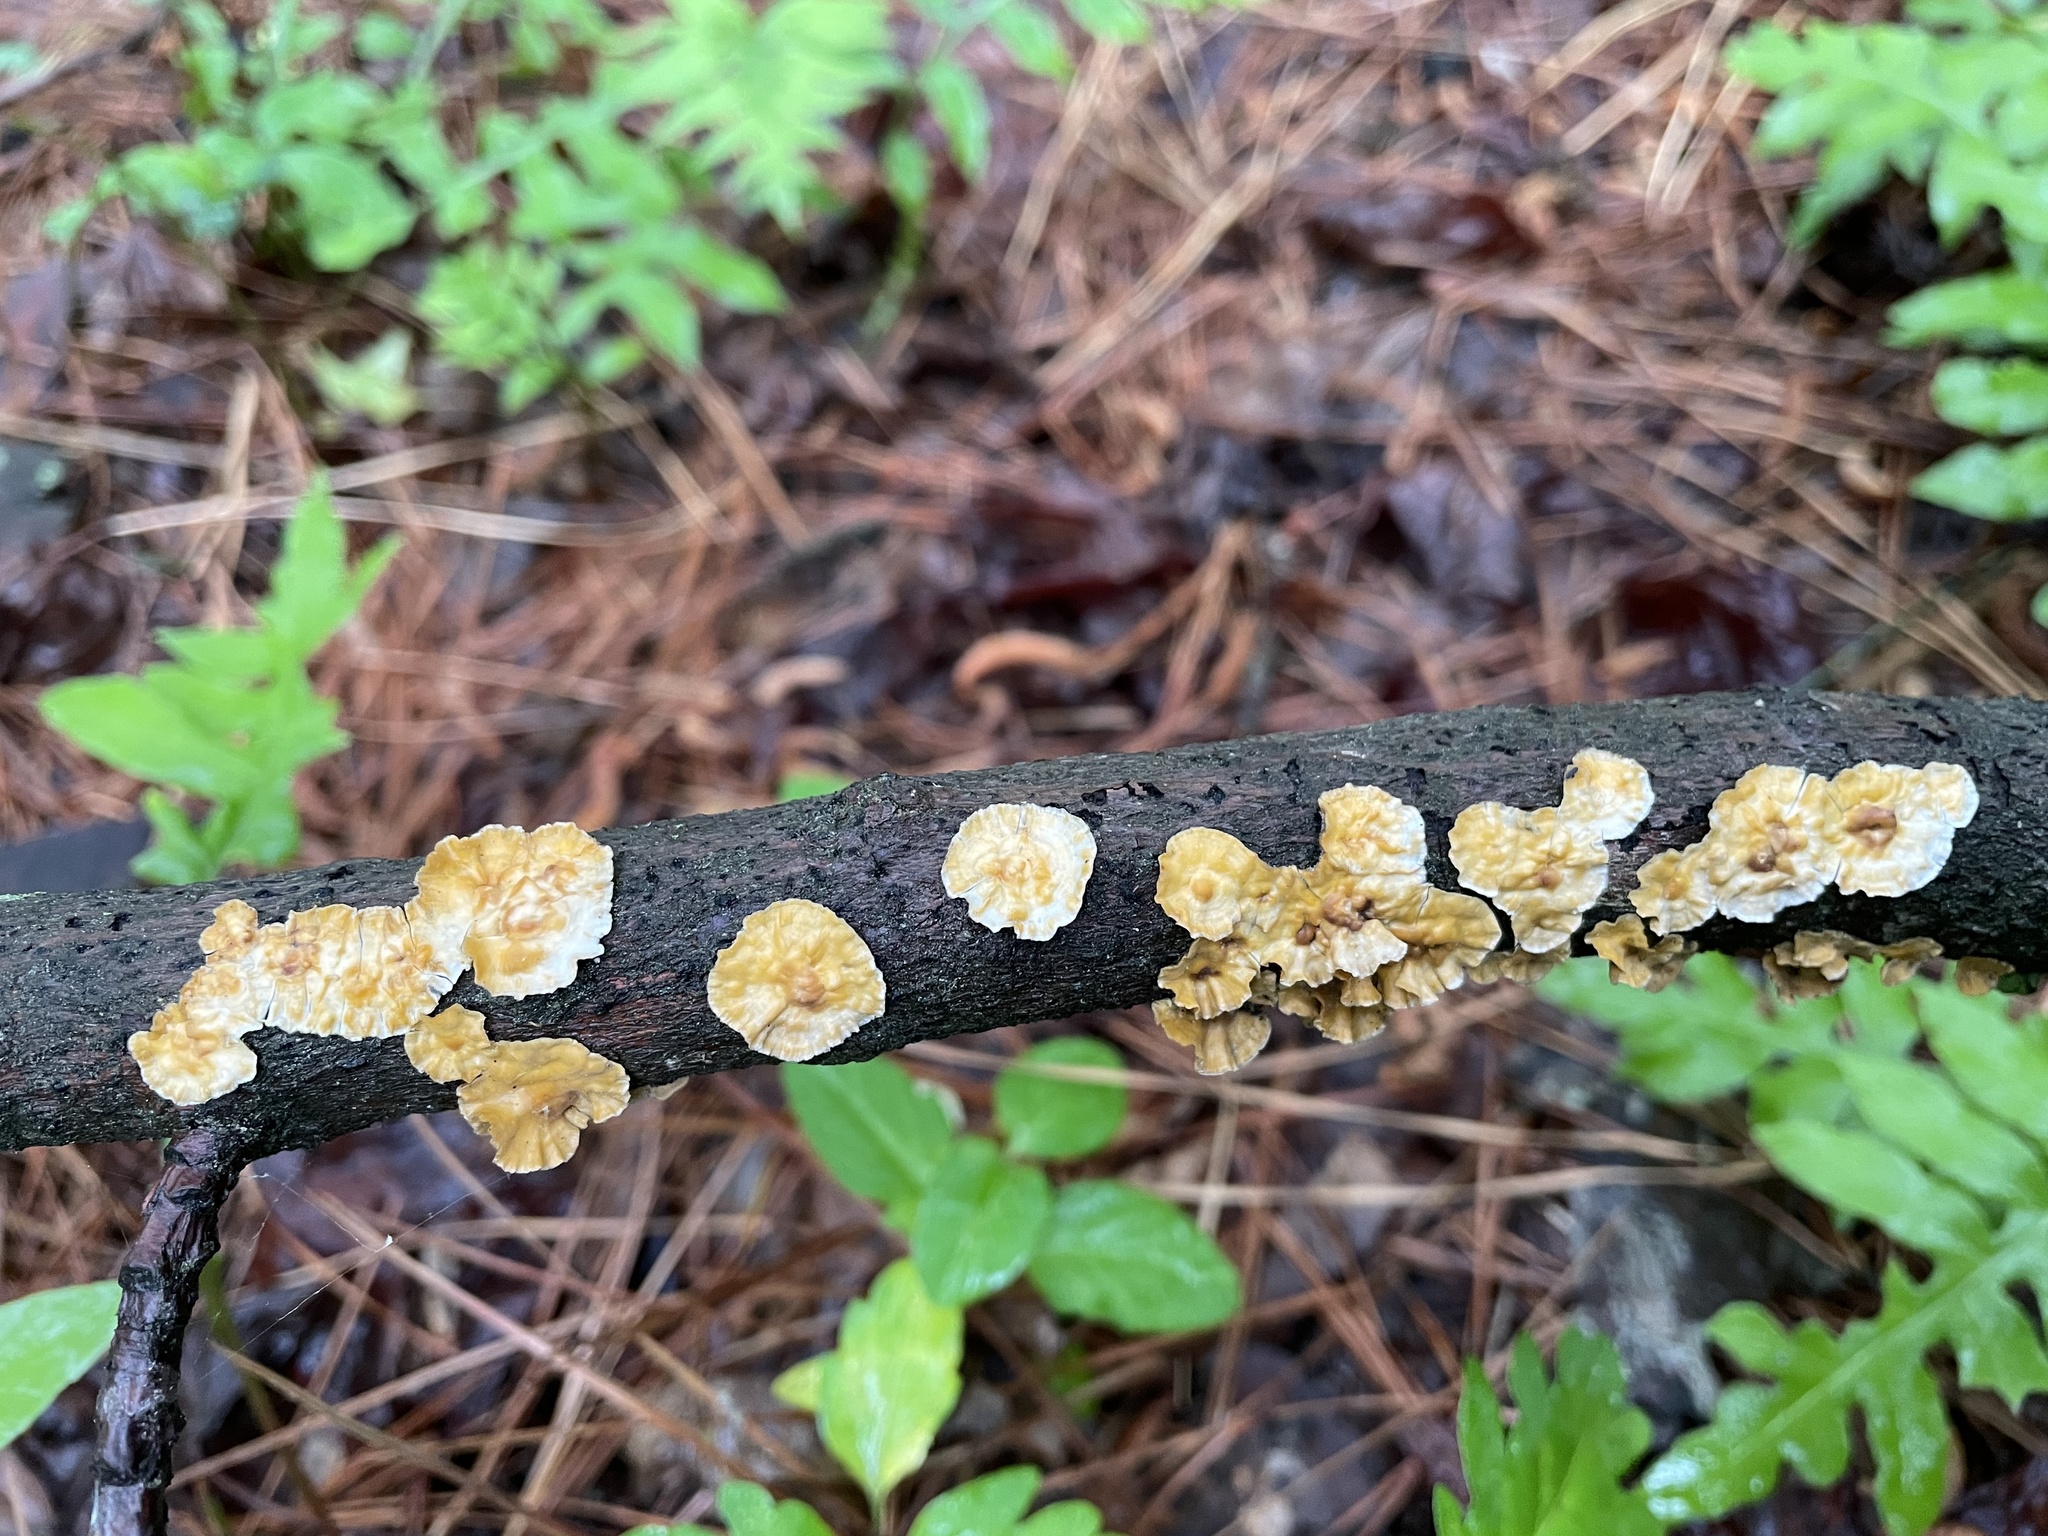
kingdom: Fungi
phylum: Basidiomycota
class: Agaricomycetes
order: Russulales
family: Stereaceae
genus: Stereum
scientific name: Stereum complicatum
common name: Crowded parchment
